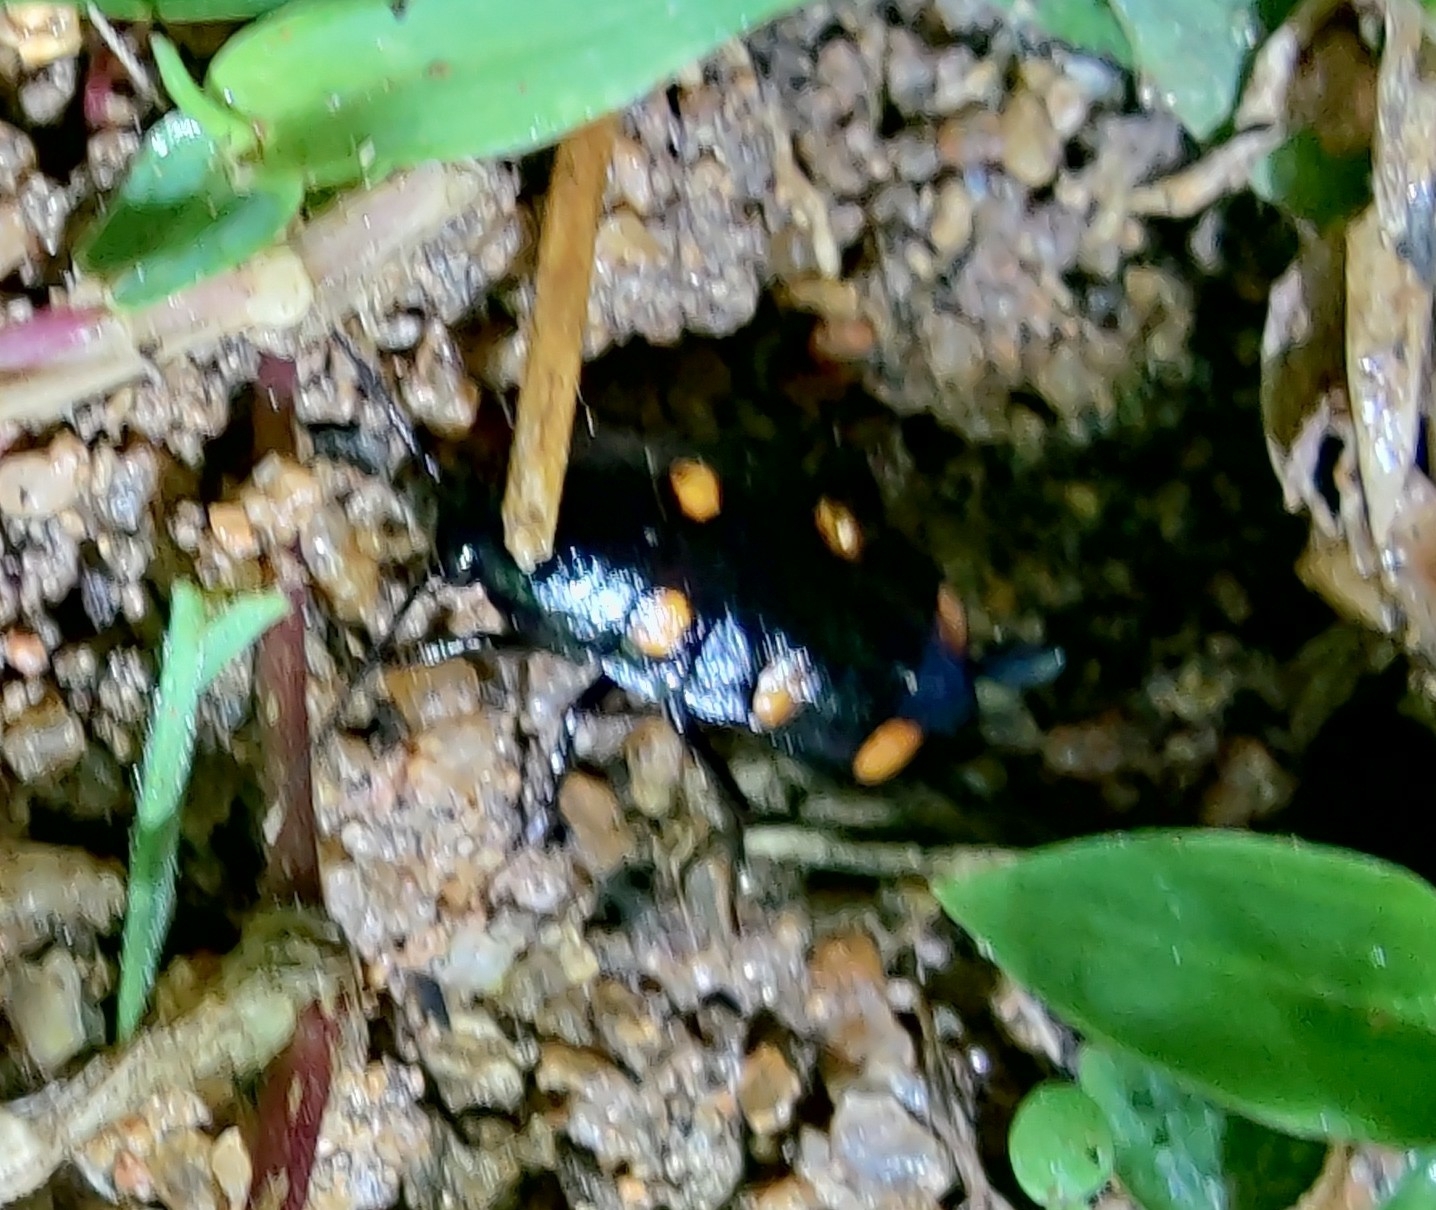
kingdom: Animalia
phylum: Arthropoda
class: Insecta
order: Blattodea
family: Blattidae
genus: Neostylopyga
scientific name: Neostylopyga sexpustulata
